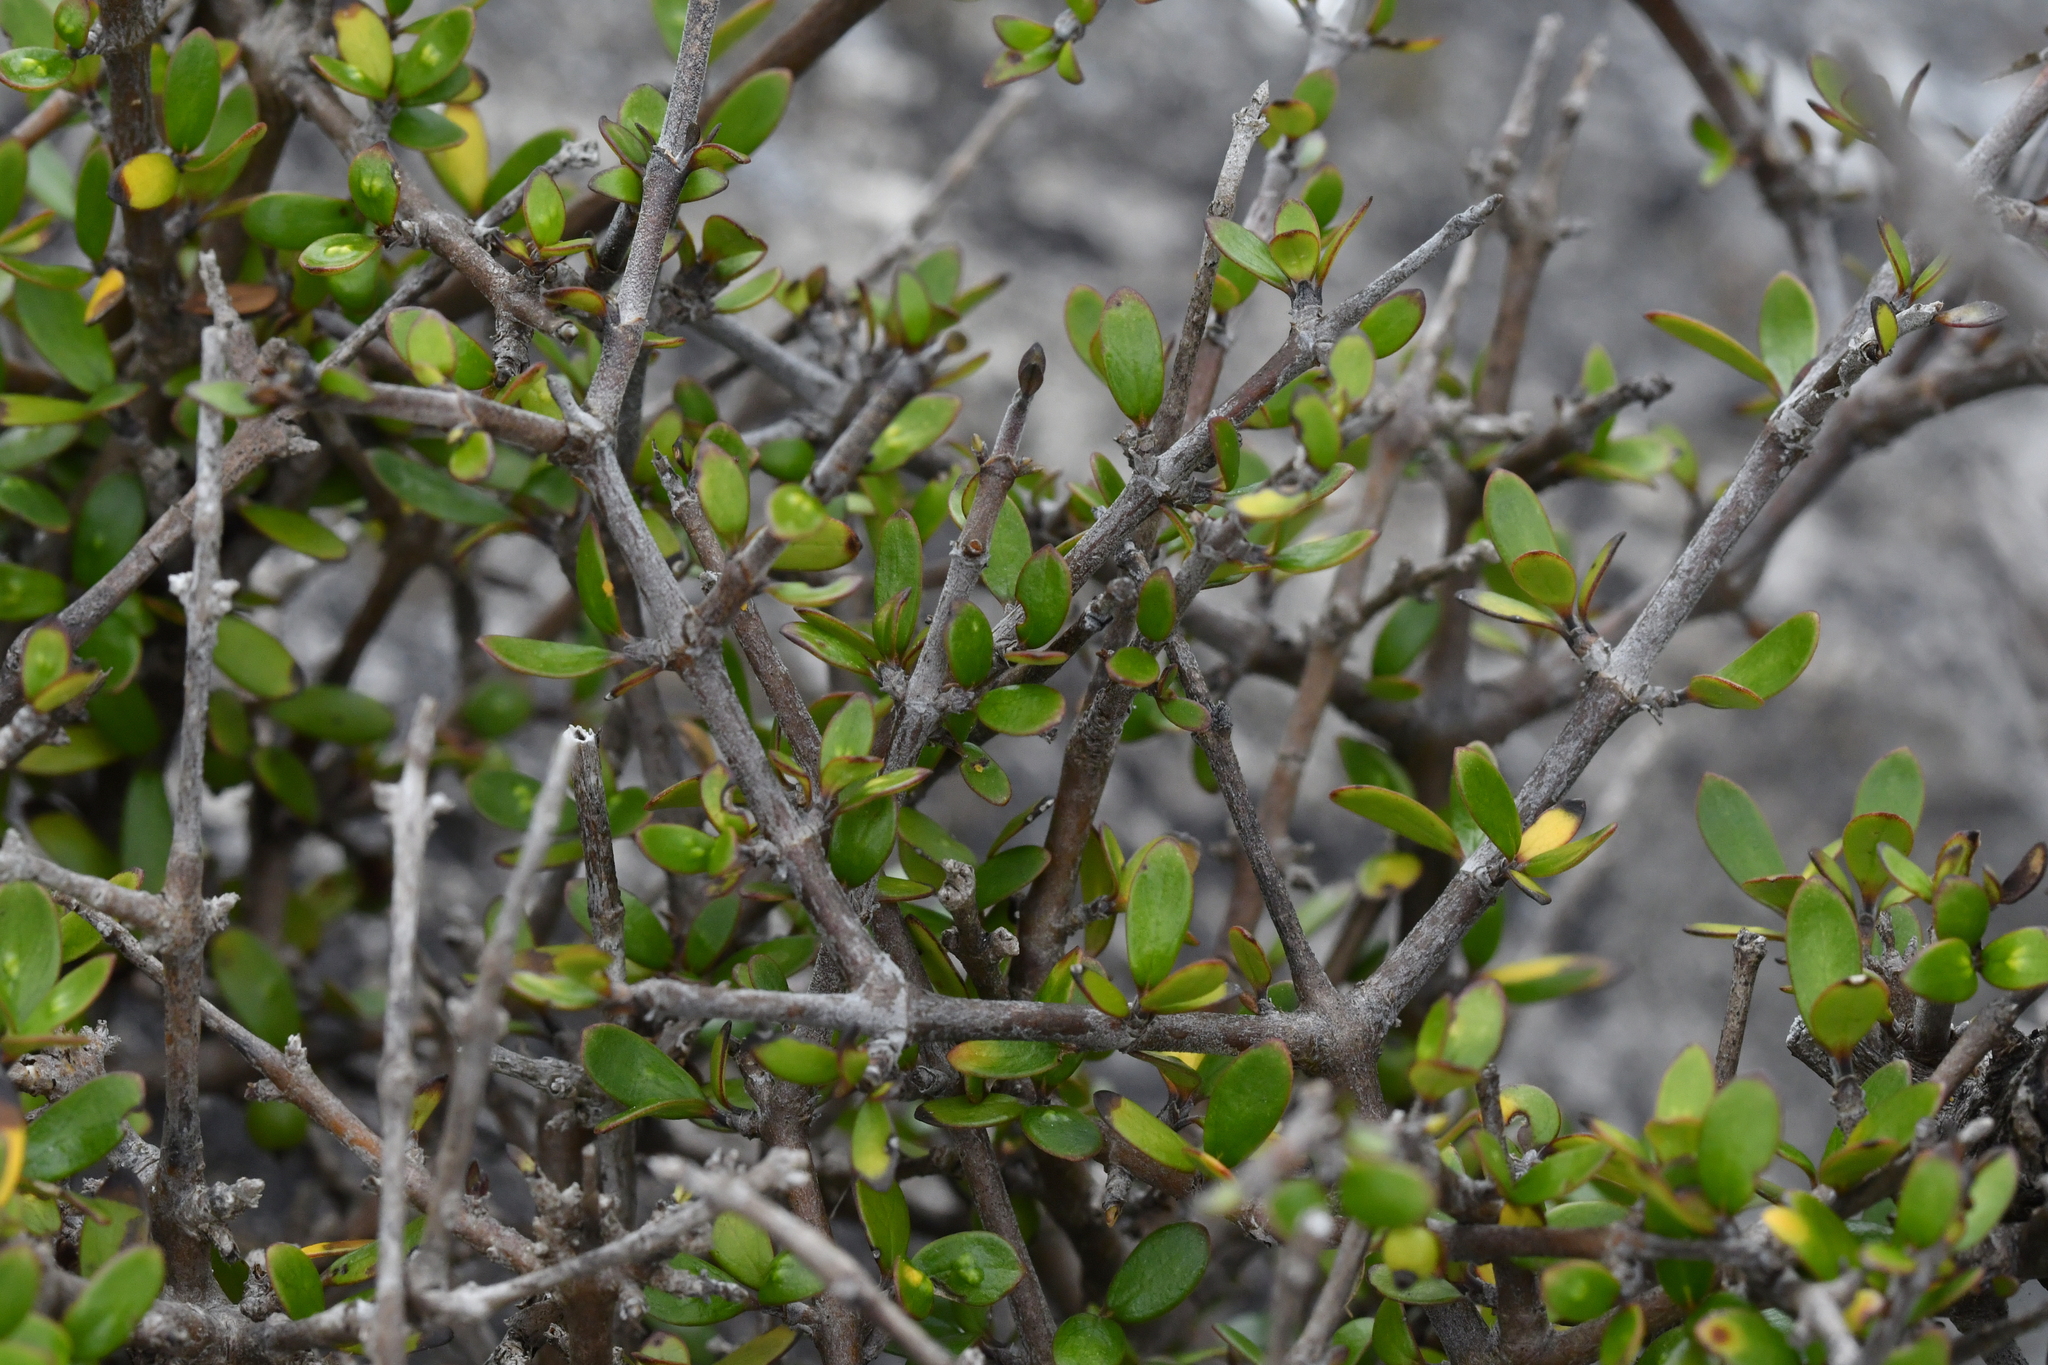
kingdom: Plantae
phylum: Tracheophyta
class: Magnoliopsida
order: Gentianales
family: Rubiaceae
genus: Coprosma
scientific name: Coprosma propinqua
